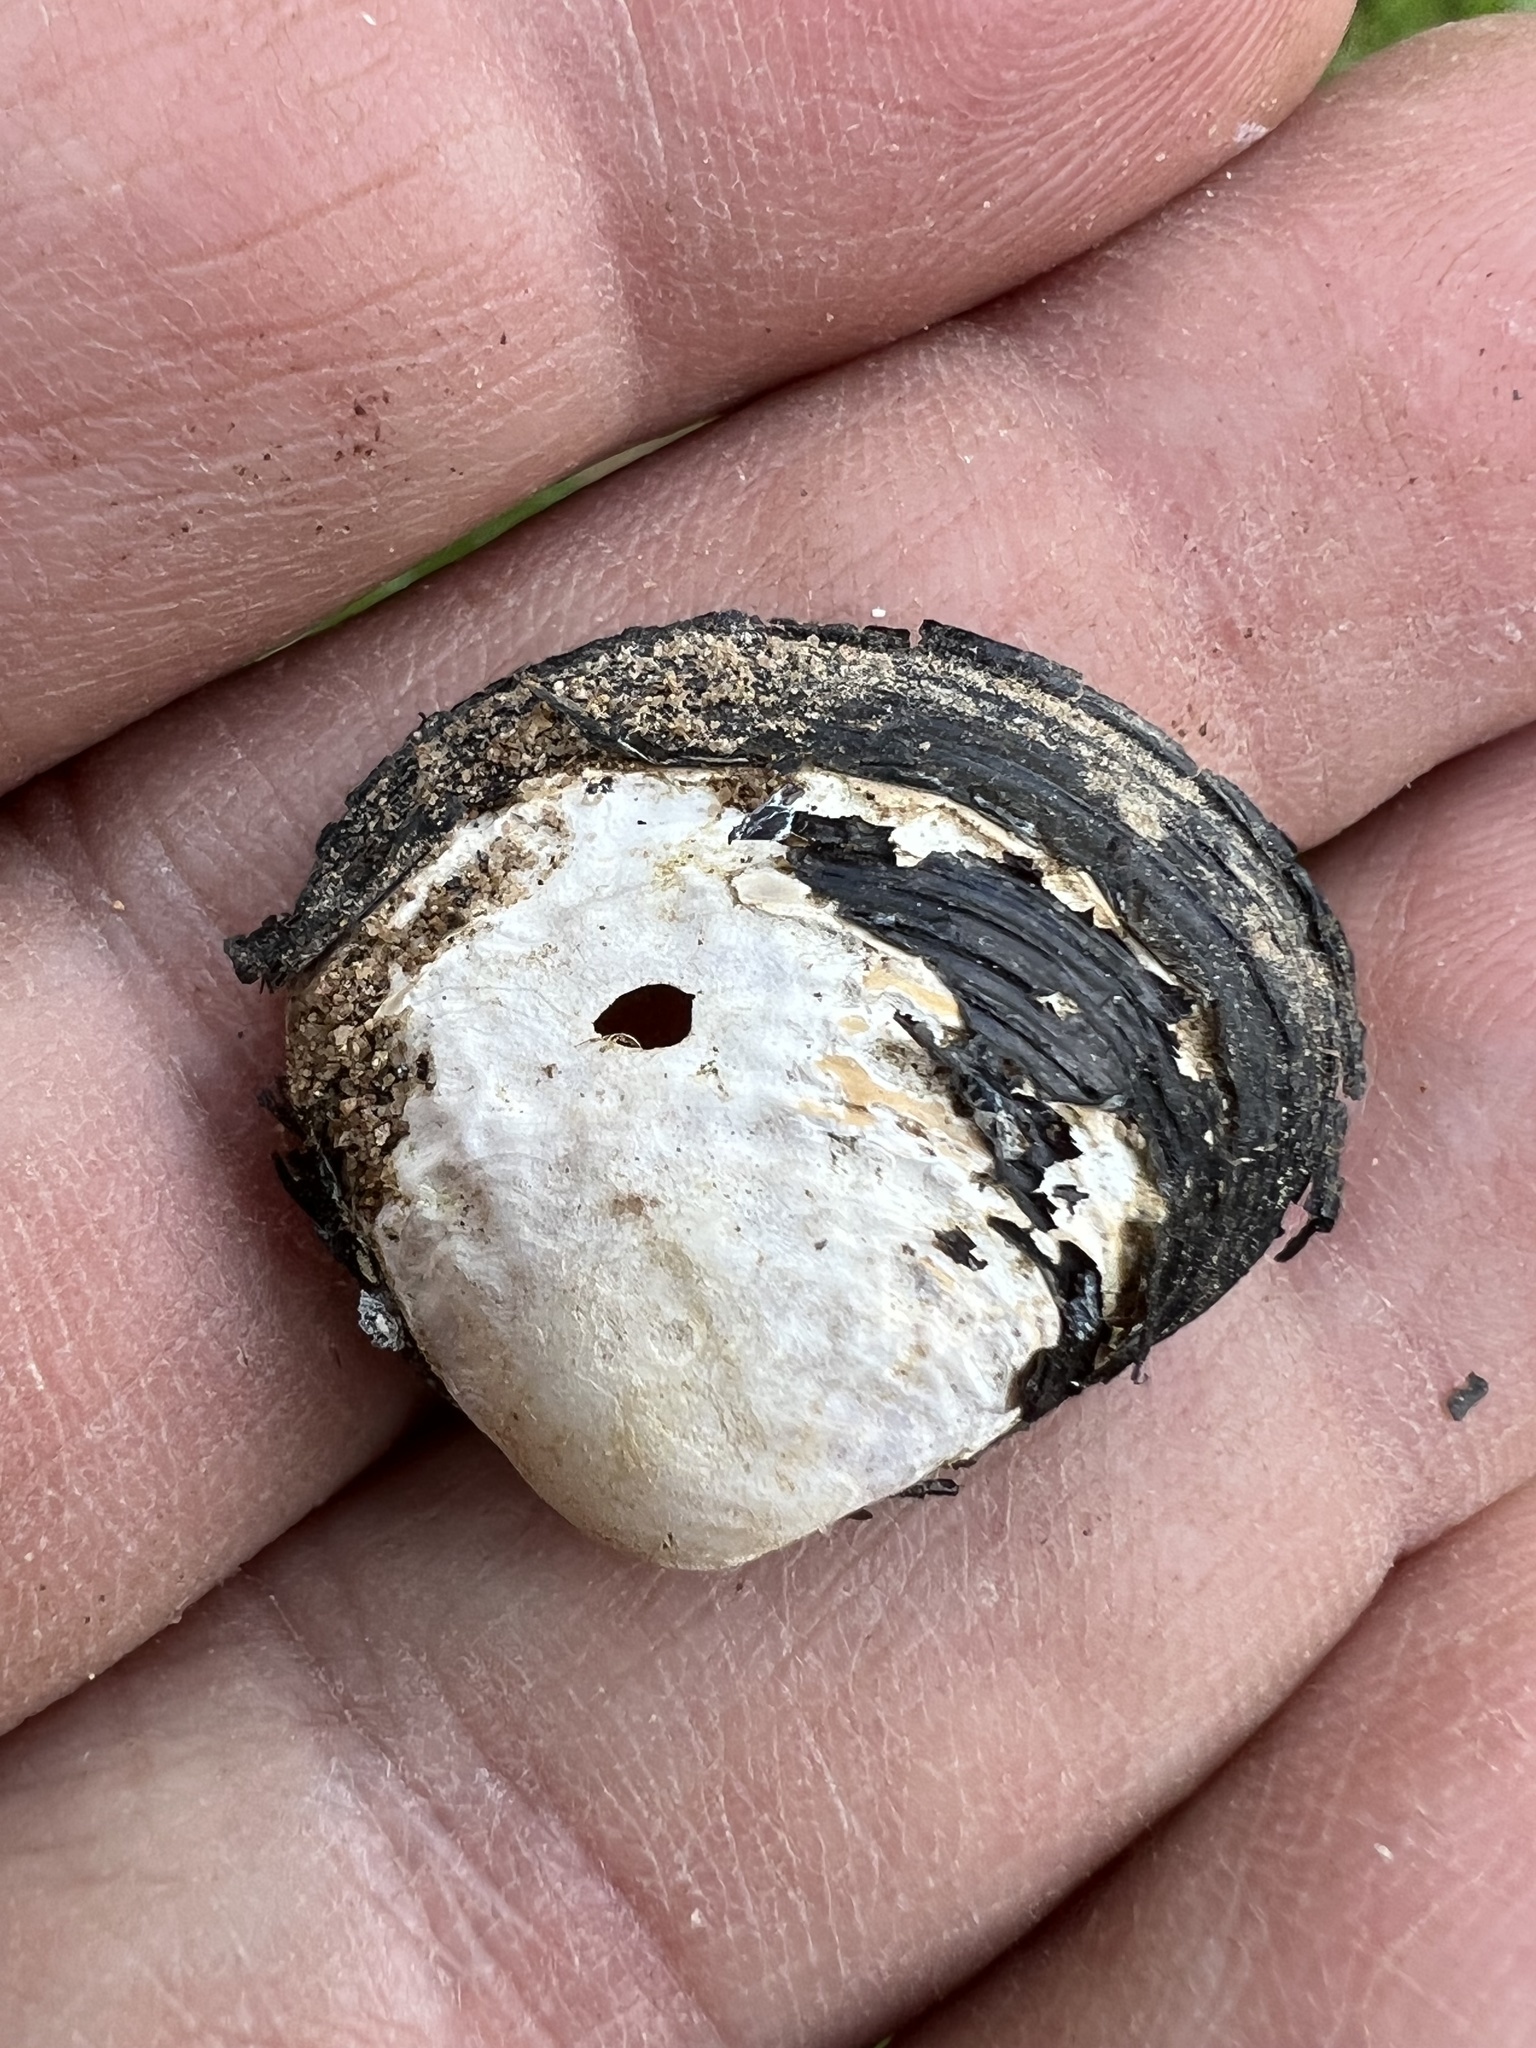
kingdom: Animalia
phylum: Mollusca
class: Bivalvia
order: Venerida
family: Cyrenidae
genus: Corbicula
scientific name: Corbicula fluminea
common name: Asian clam
